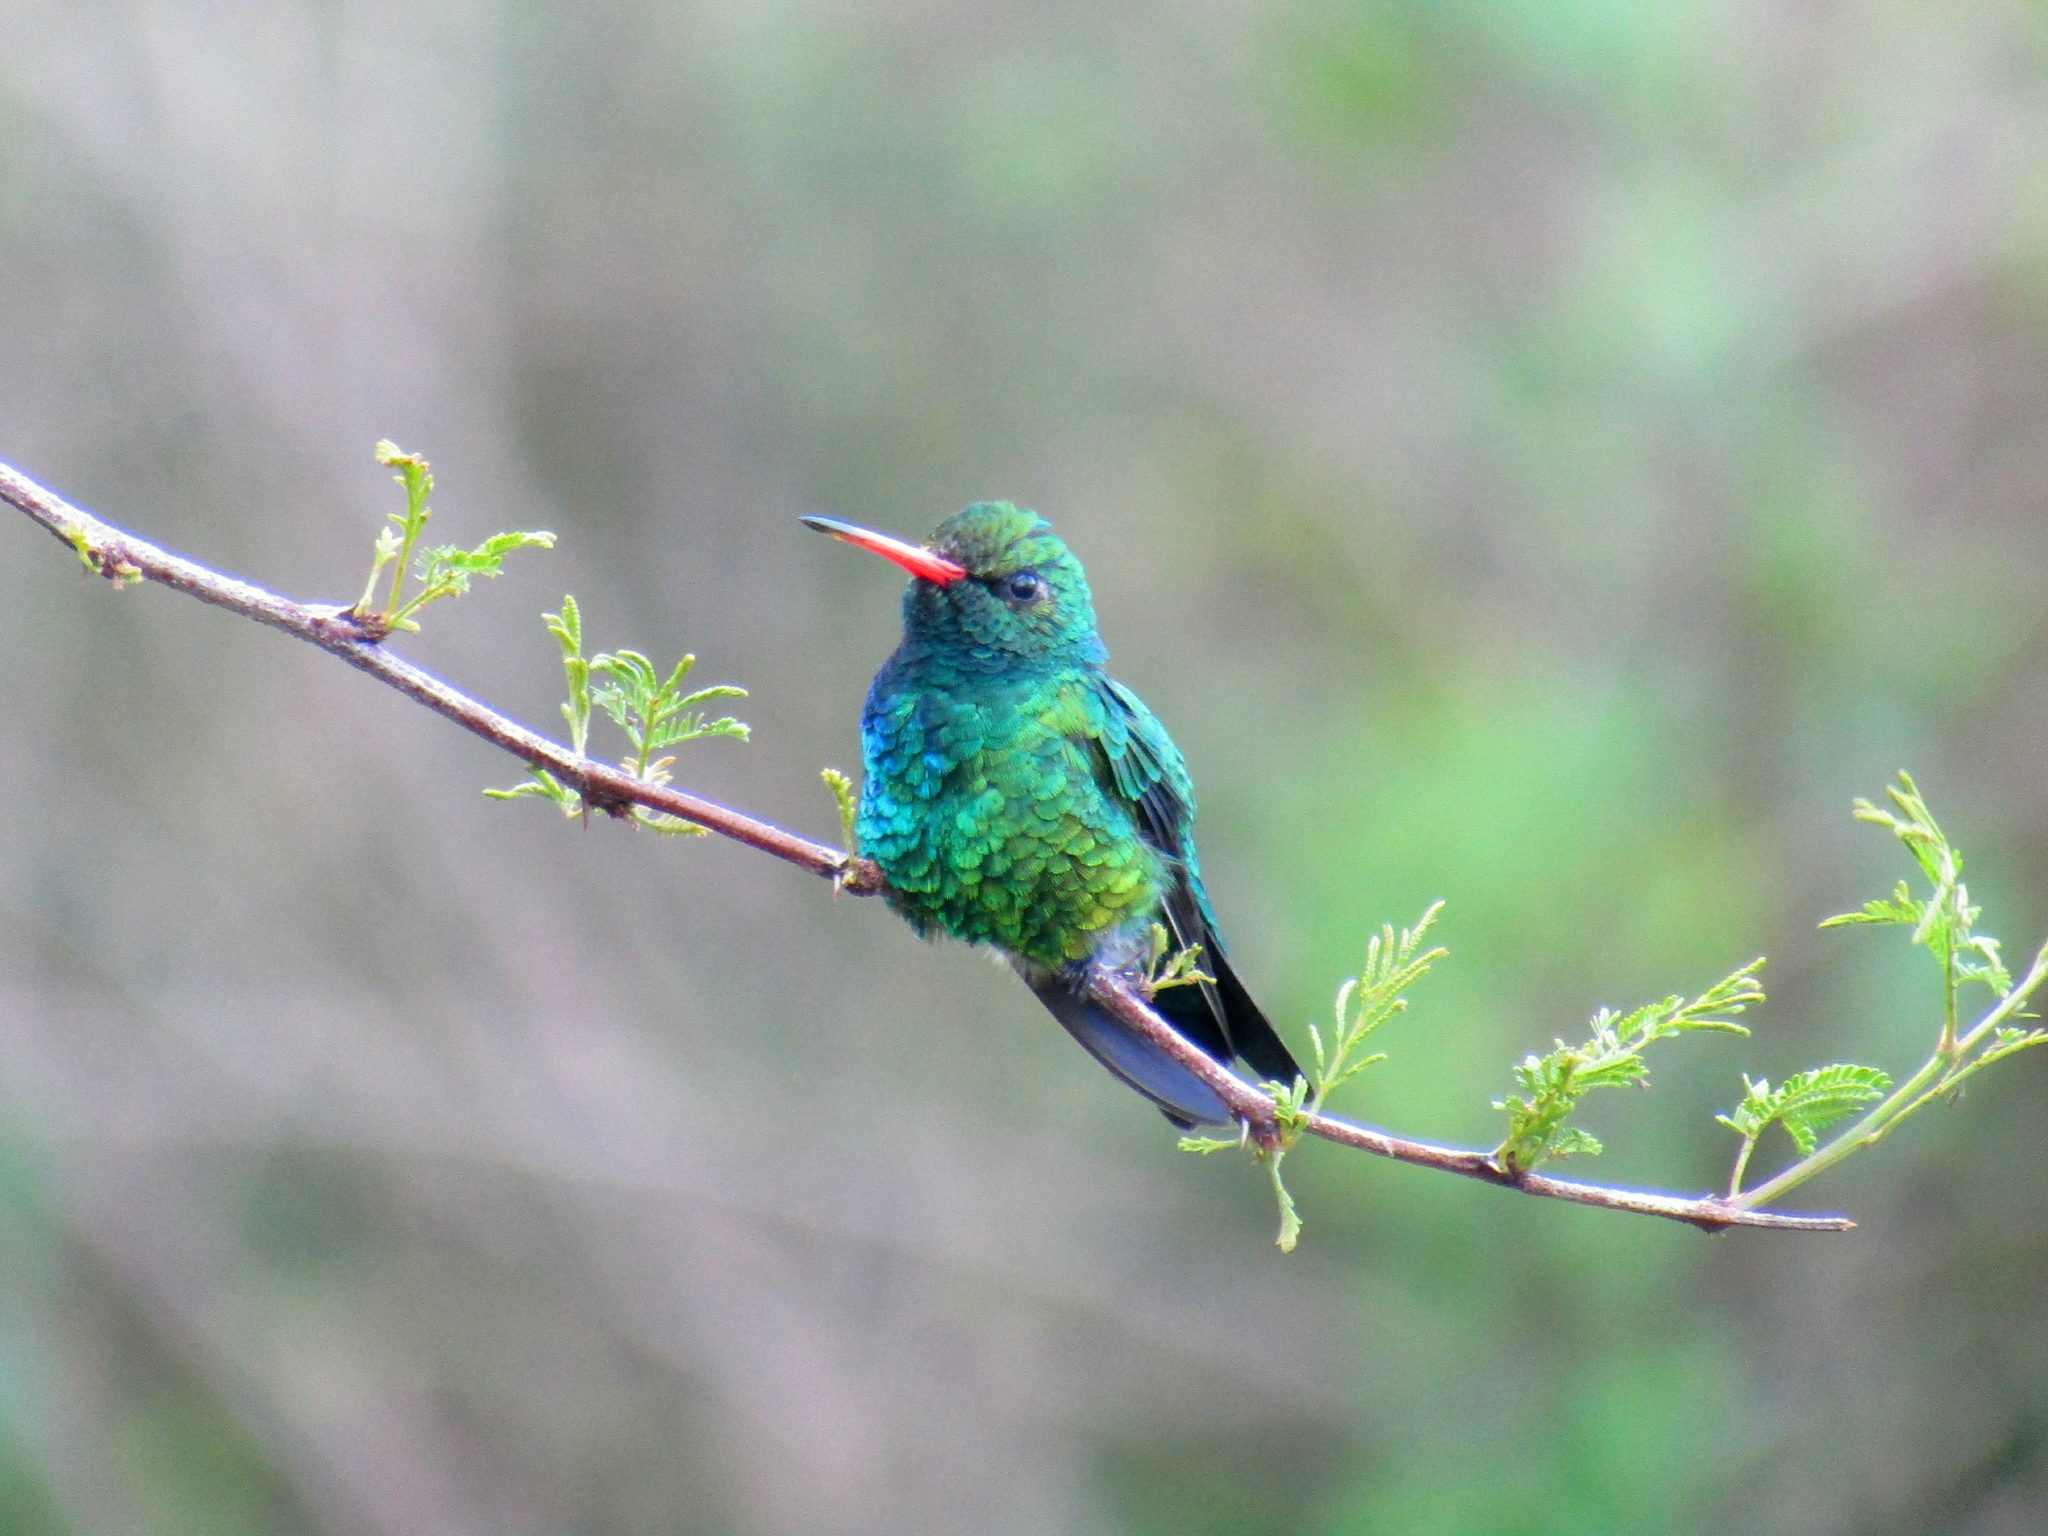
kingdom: Animalia
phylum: Chordata
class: Aves
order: Apodiformes
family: Trochilidae
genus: Chlorostilbon
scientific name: Chlorostilbon lucidus
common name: Glittering-bellied emerald
